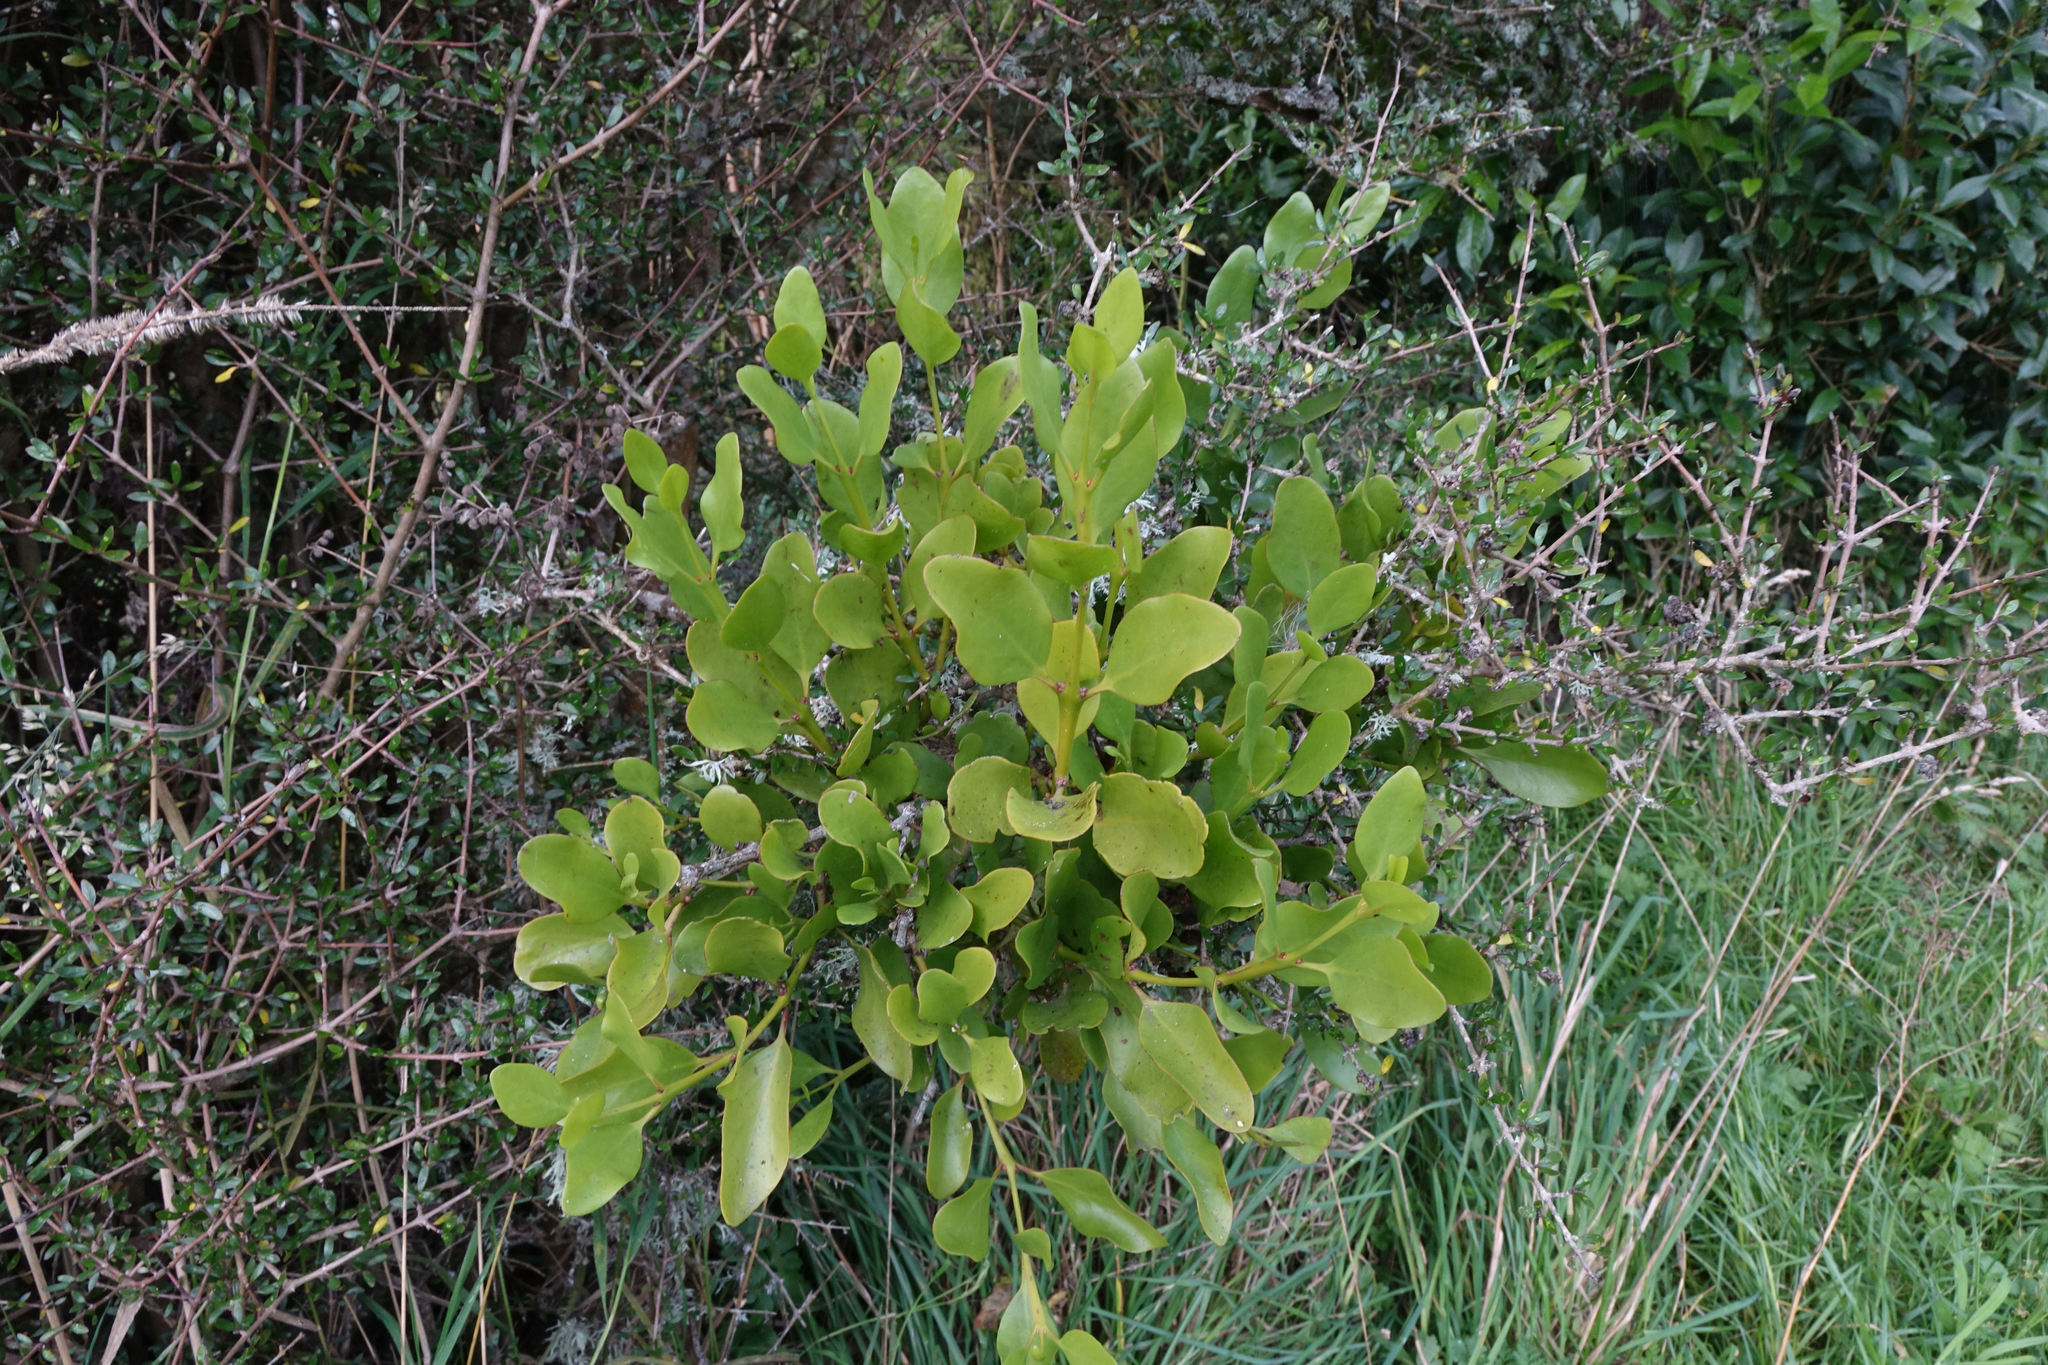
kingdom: Plantae
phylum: Tracheophyta
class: Magnoliopsida
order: Santalales
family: Loranthaceae
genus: Ileostylus
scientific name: Ileostylus micranthus
